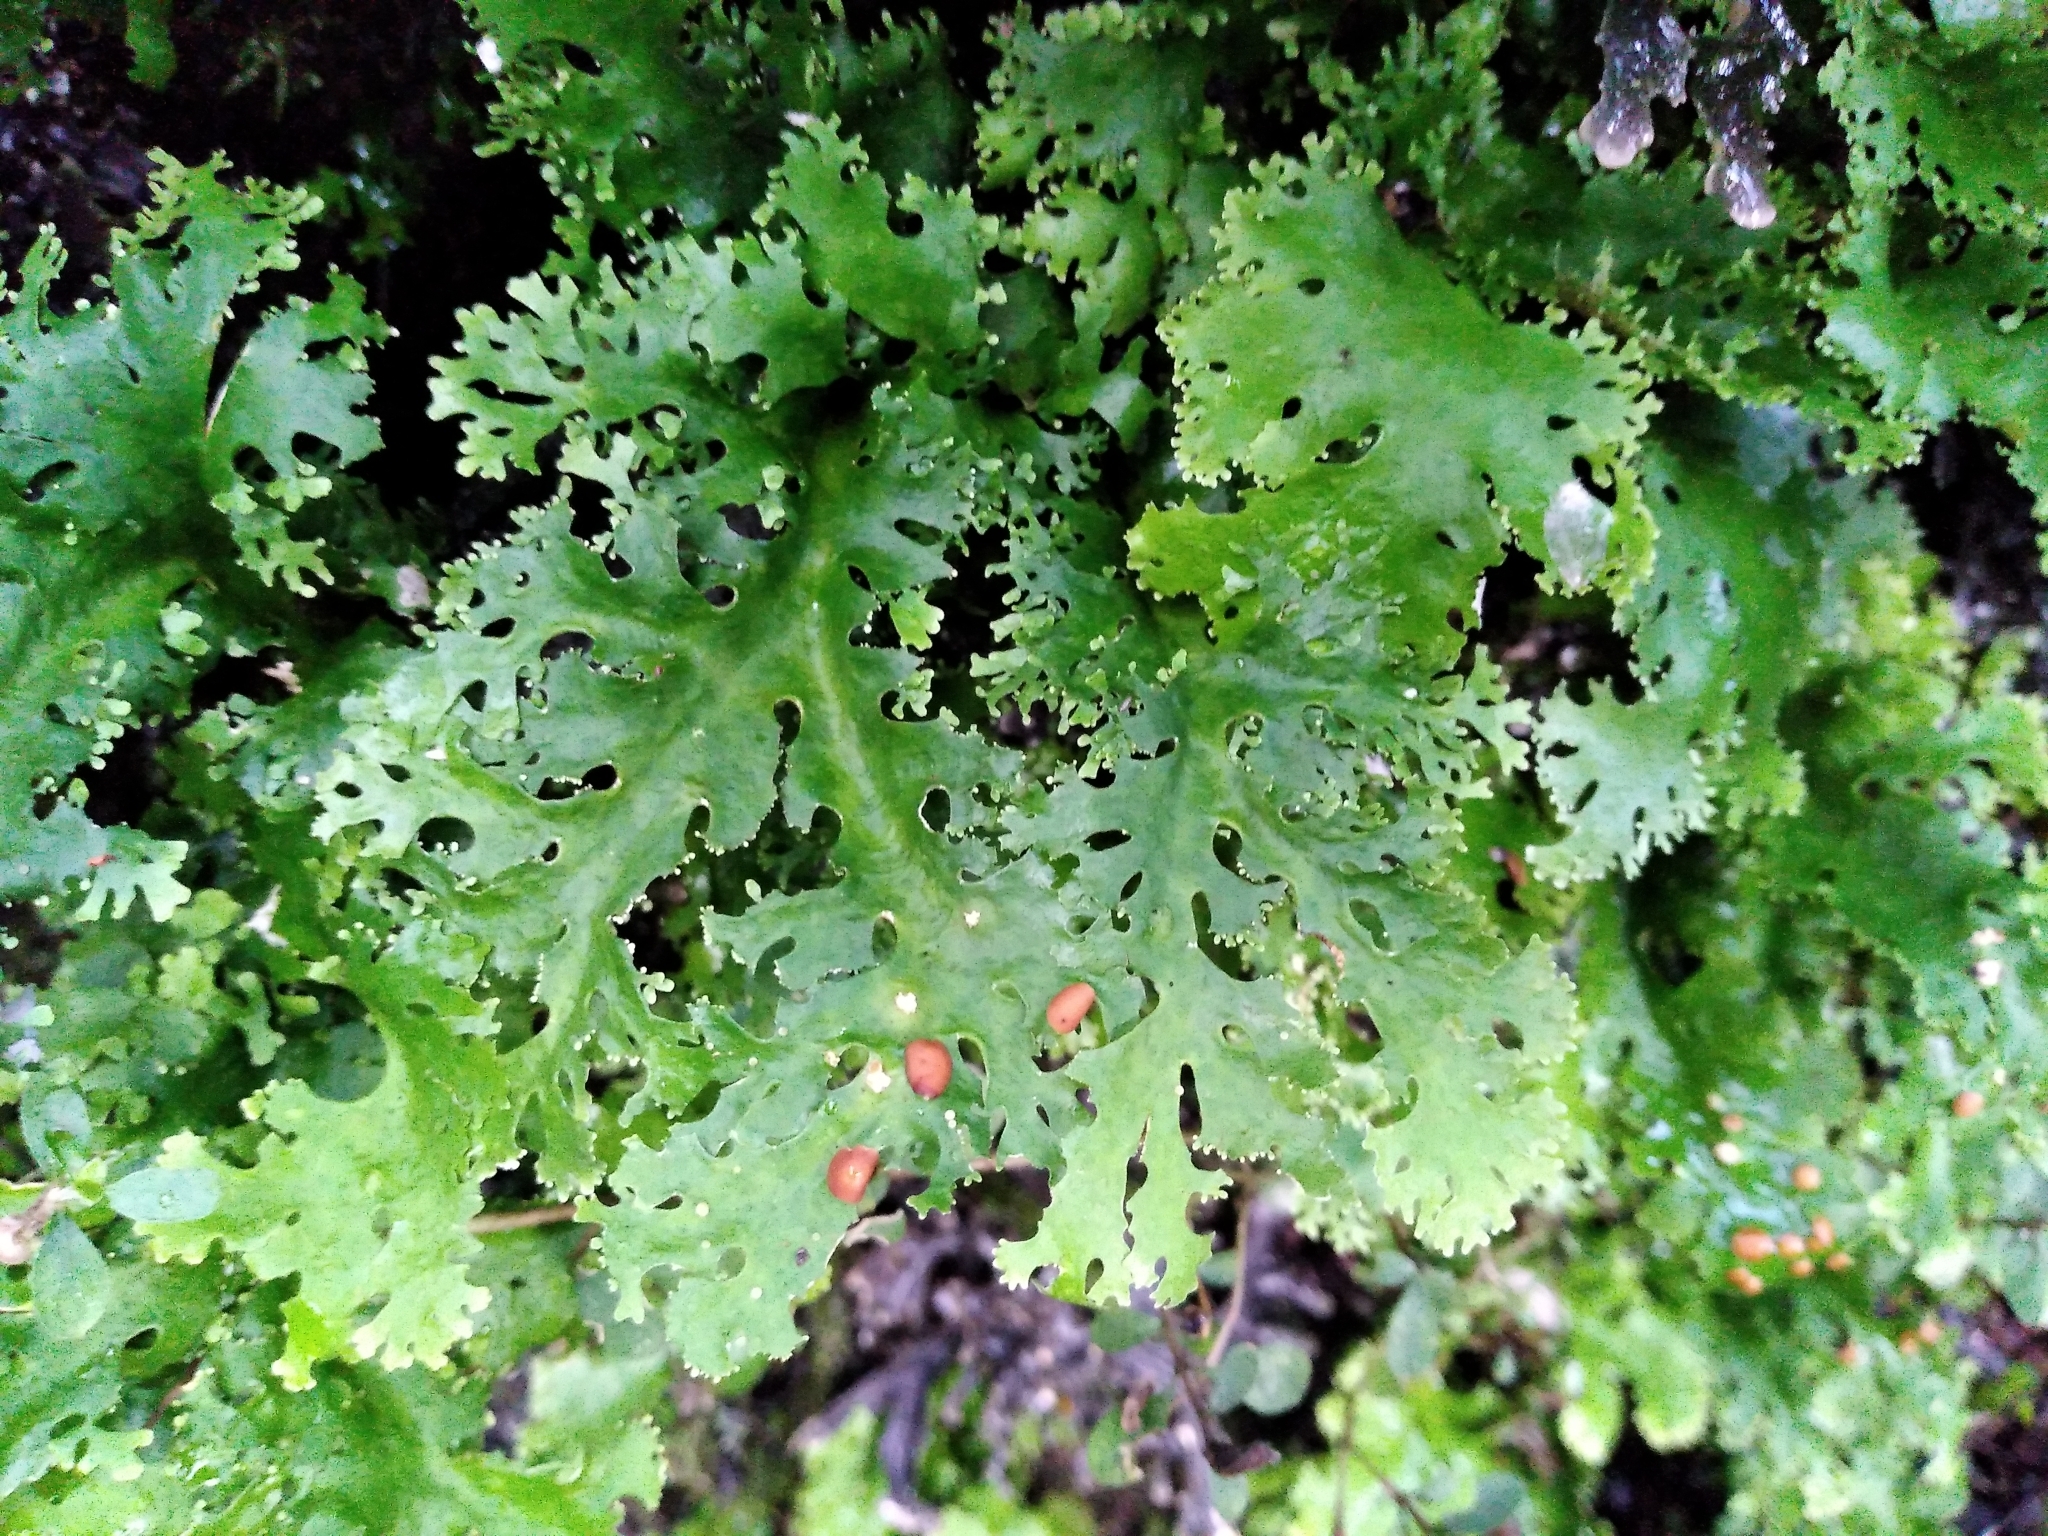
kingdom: Fungi
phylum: Ascomycota
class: Lecanoromycetes
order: Peltigerales
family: Lobariaceae
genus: Sticta
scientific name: Sticta filix
